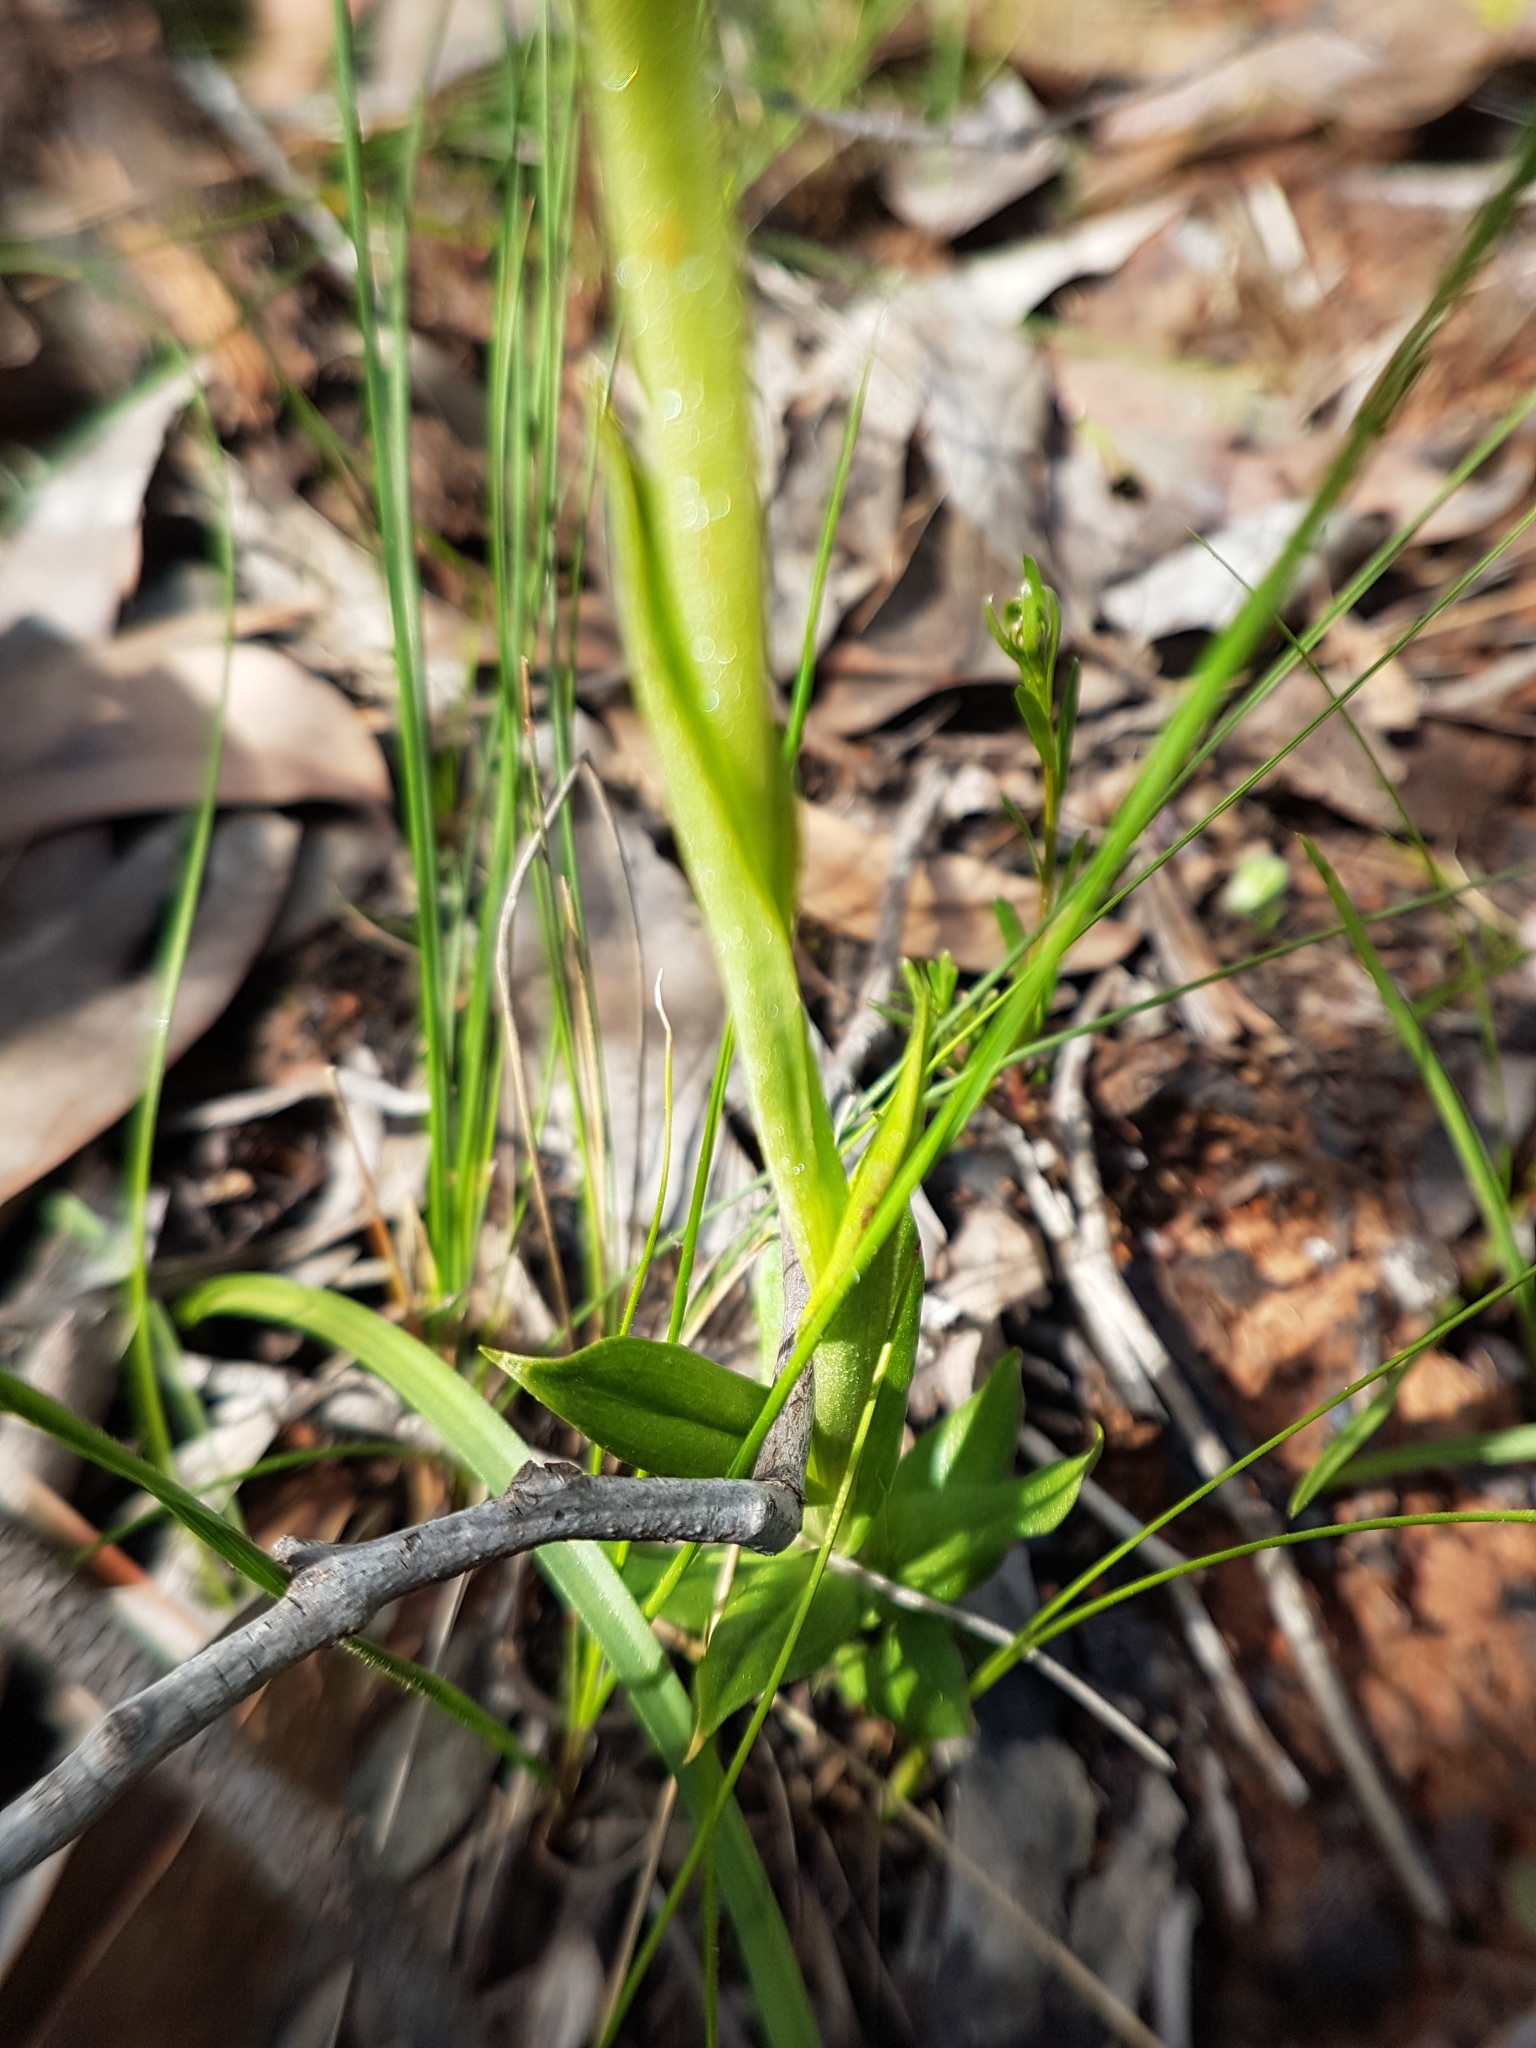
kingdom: Plantae
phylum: Tracheophyta
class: Liliopsida
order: Asparagales
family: Orchidaceae
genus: Pterostylis
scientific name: Pterostylis unicornis
